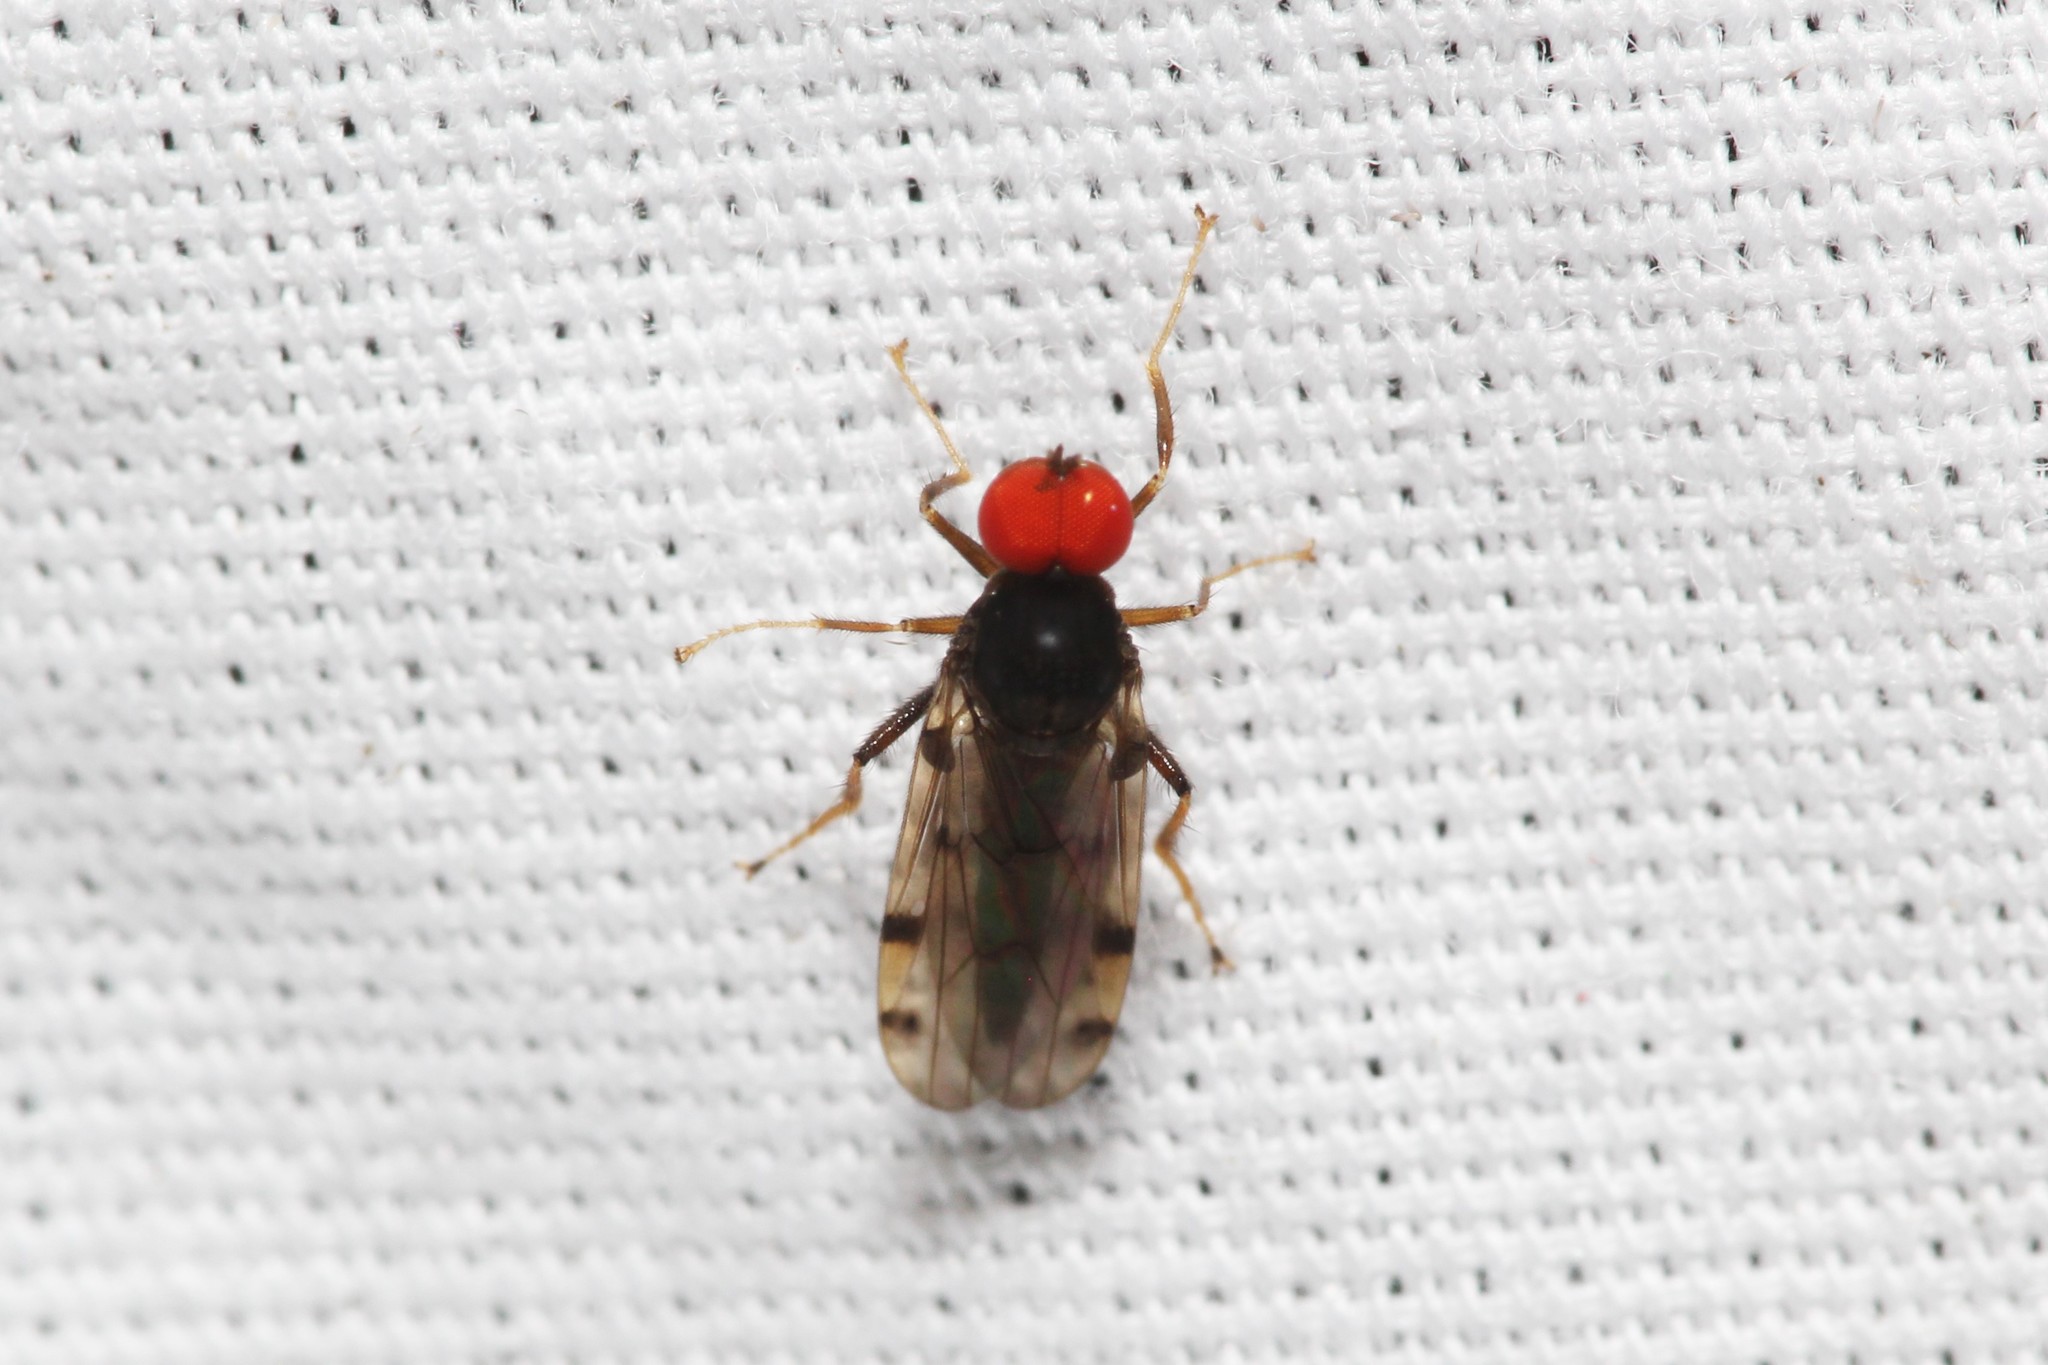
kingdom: Animalia
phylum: Arthropoda
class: Insecta
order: Diptera
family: Hybotidae
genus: Syneches
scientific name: Syneches simplex
